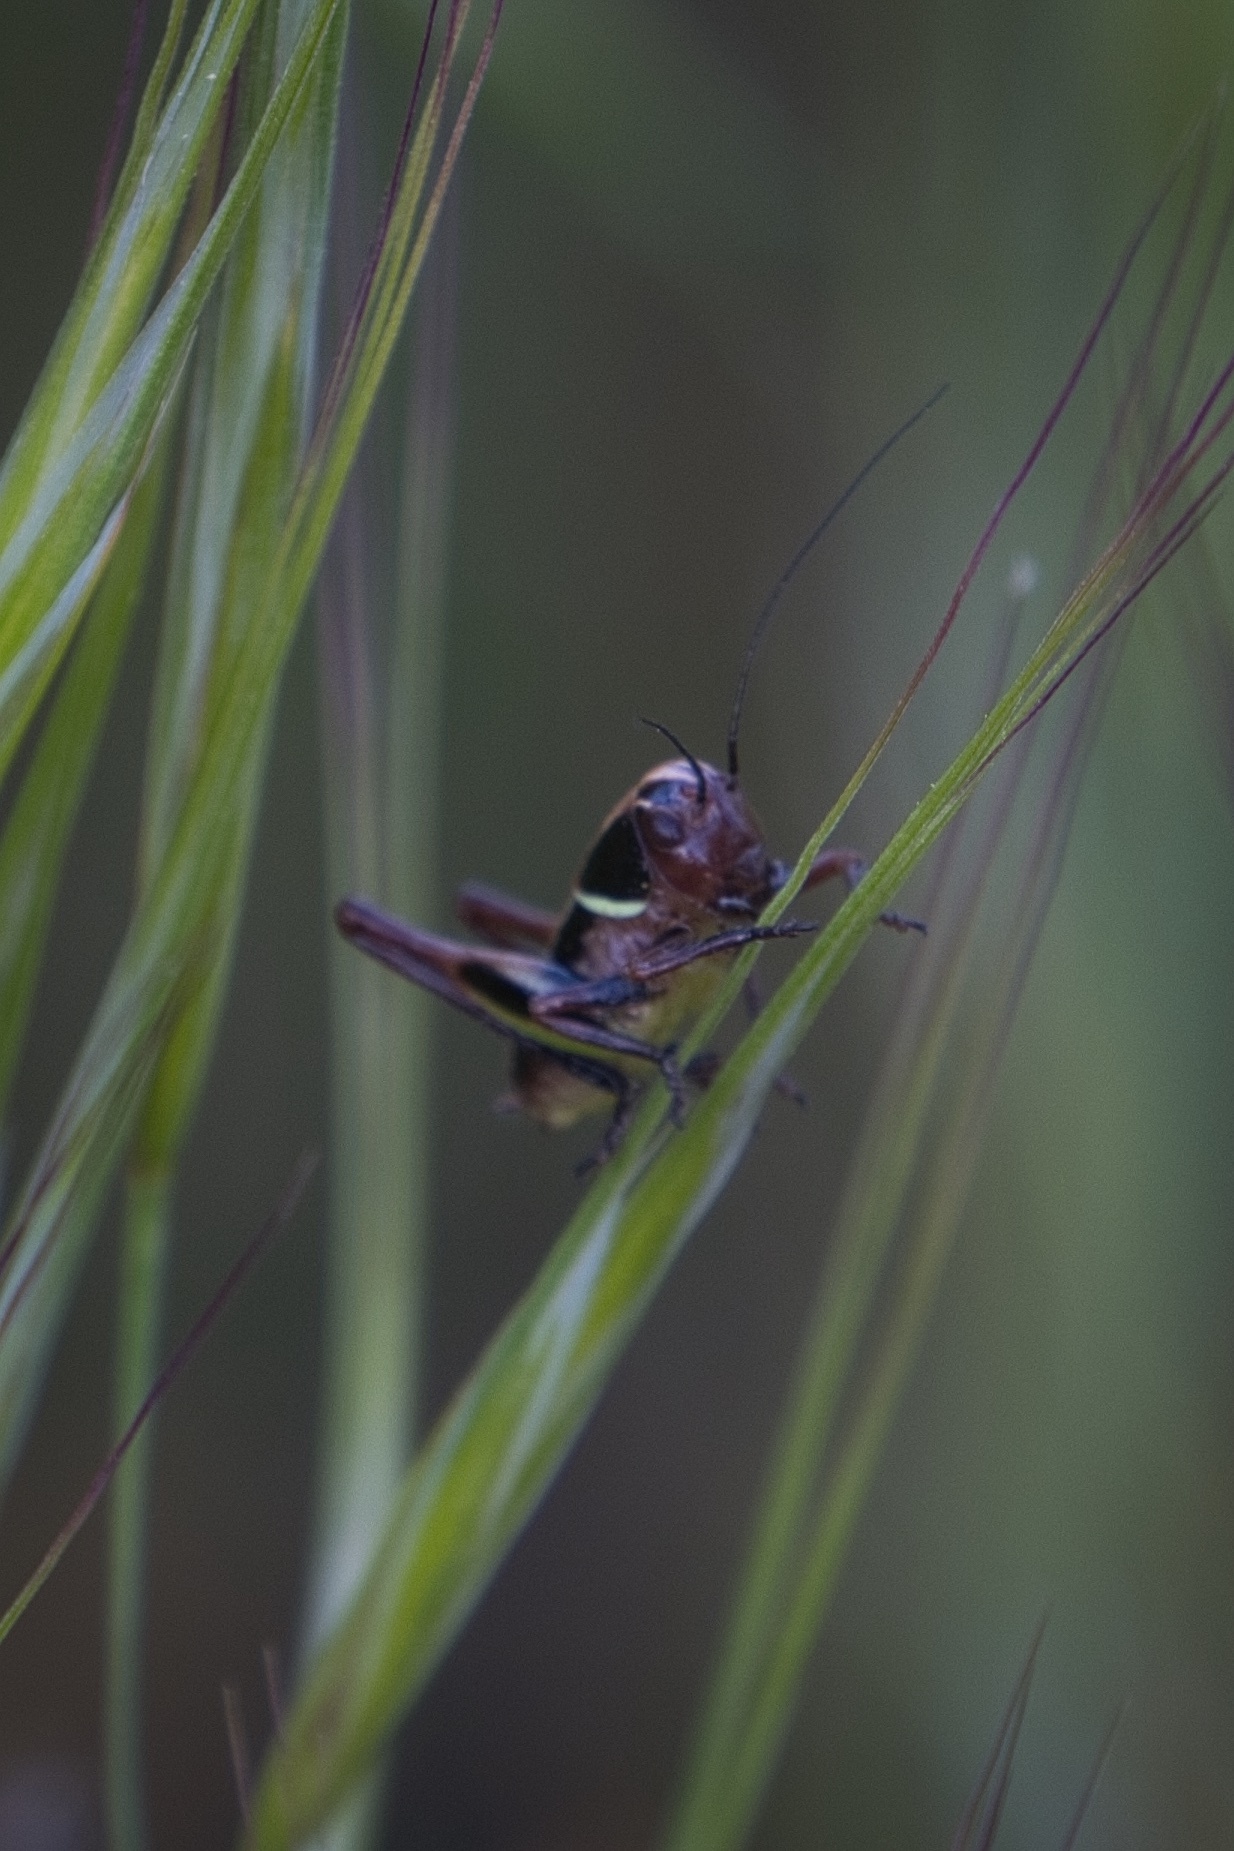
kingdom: Animalia
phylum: Arthropoda
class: Insecta
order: Orthoptera
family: Tettigoniidae
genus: Decticita
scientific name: Decticita balli
